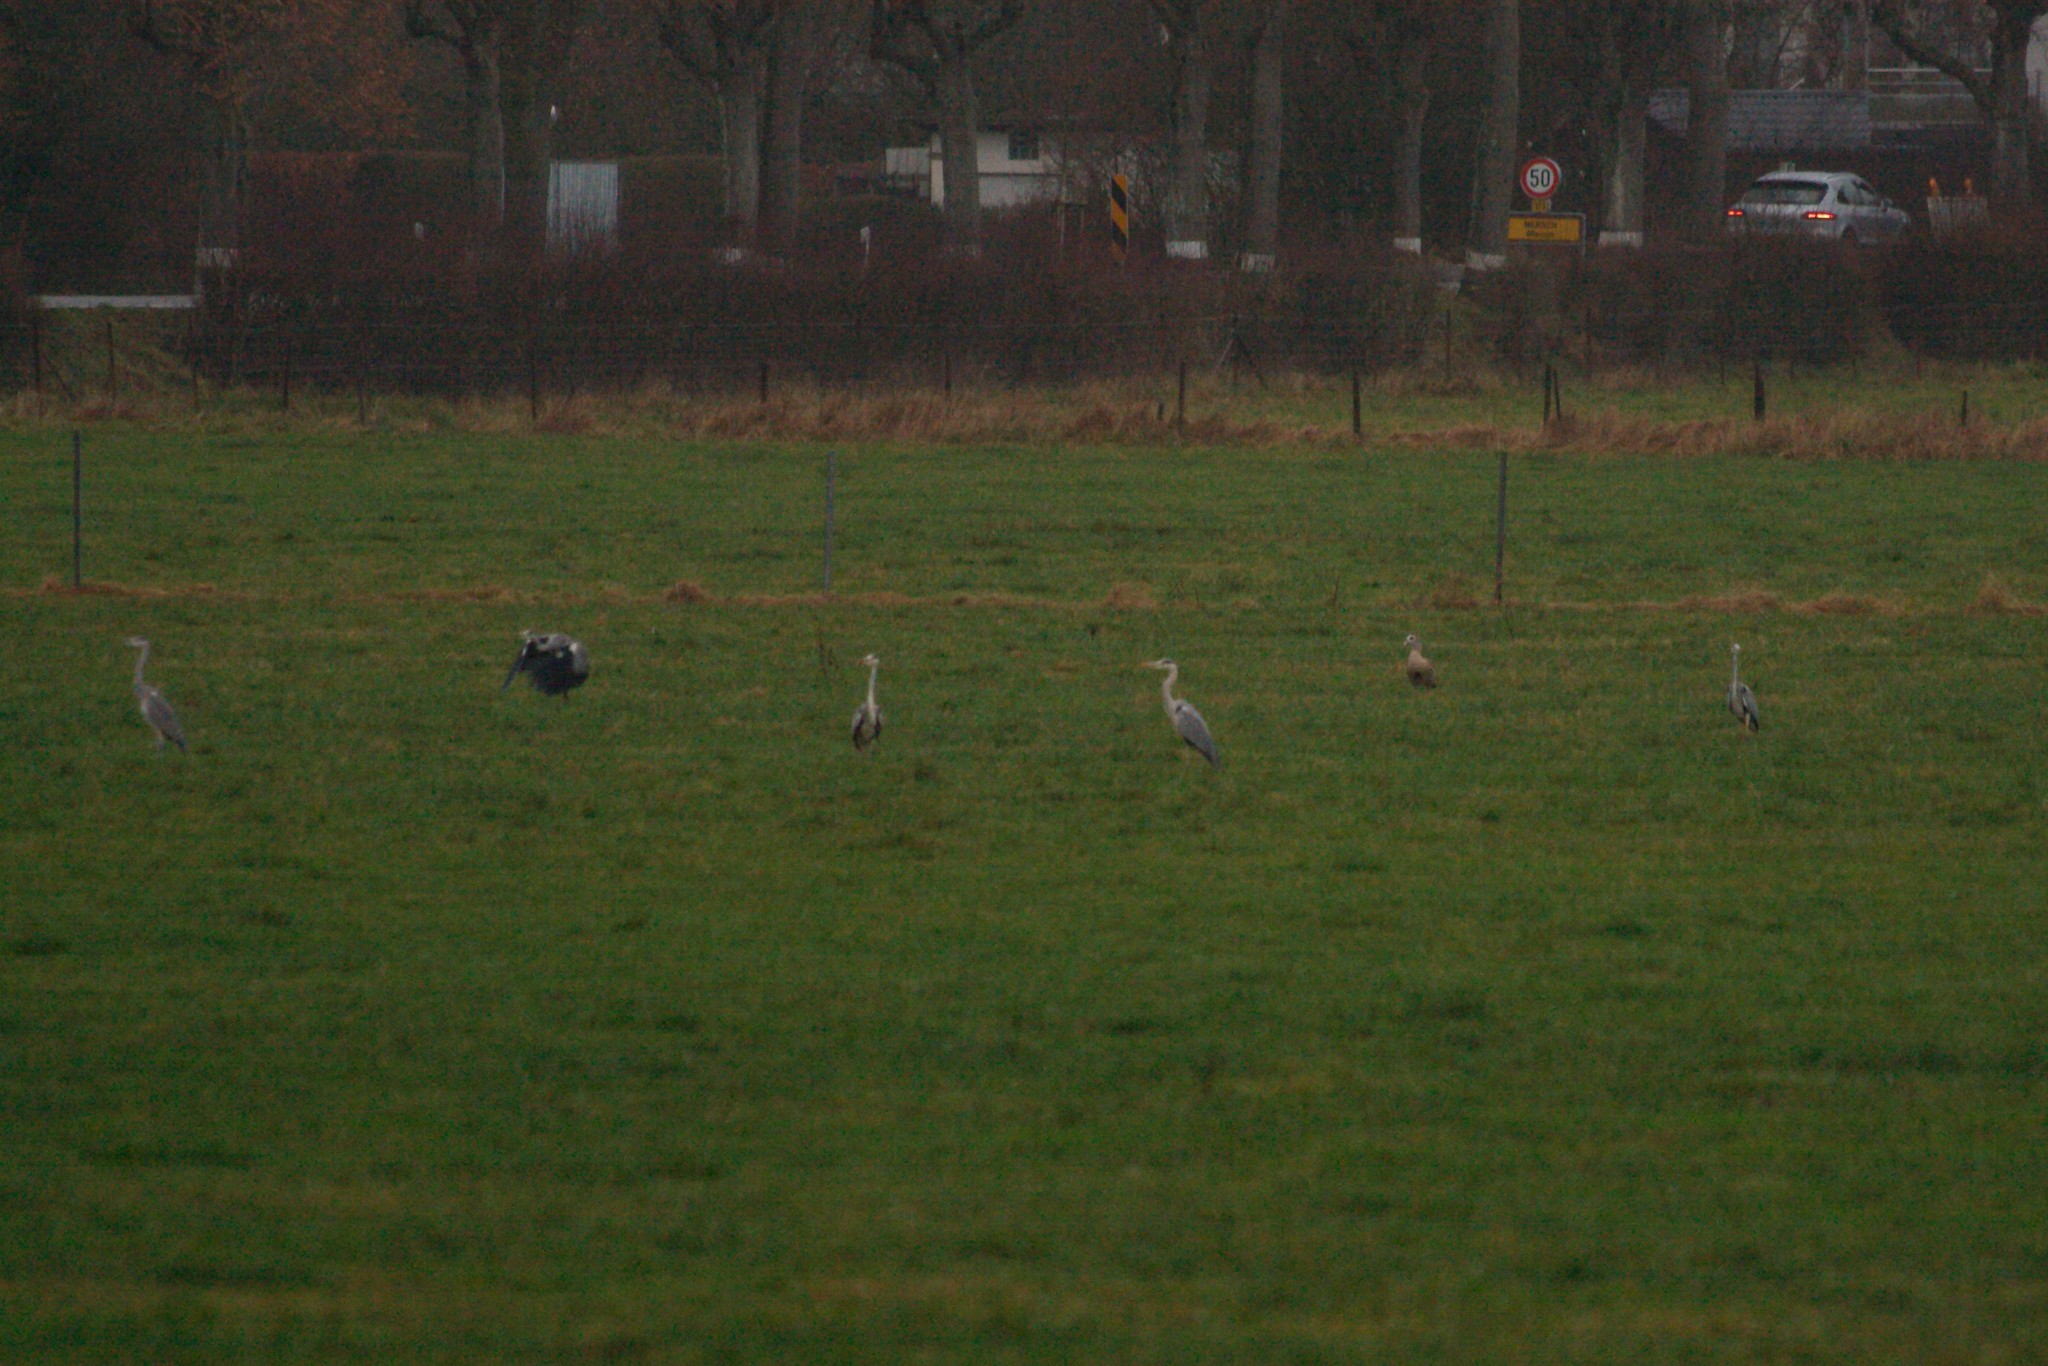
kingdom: Animalia
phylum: Chordata
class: Aves
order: Pelecaniformes
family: Ardeidae
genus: Ardea
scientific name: Ardea cinerea
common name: Grey heron
